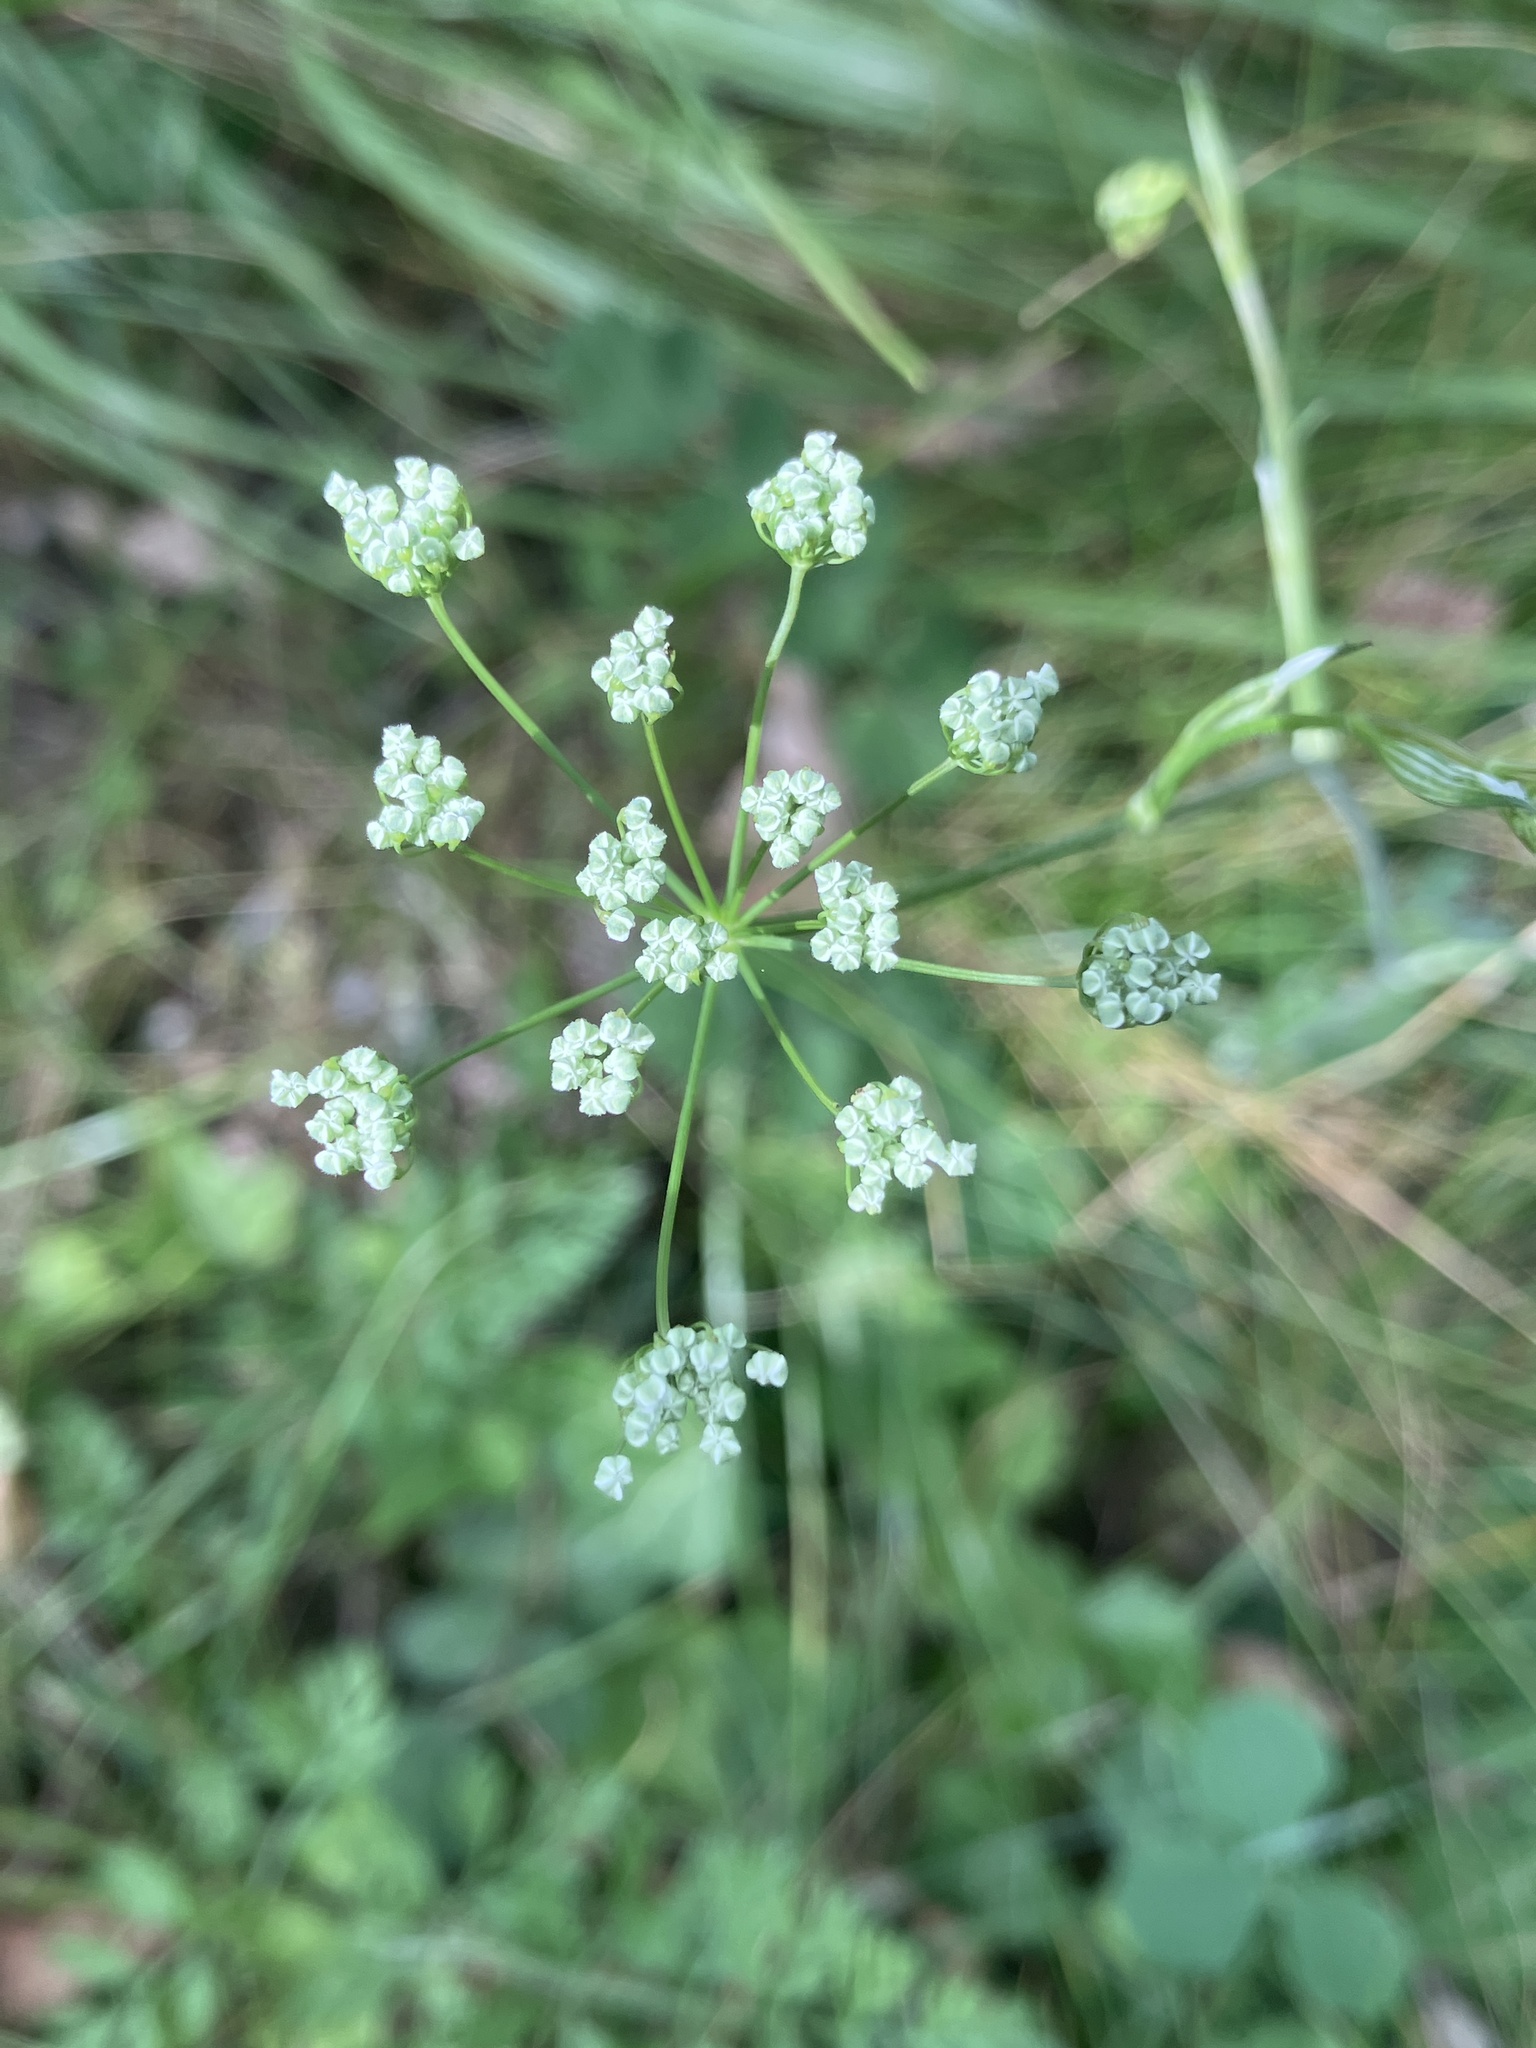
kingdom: Plantae
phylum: Tracheophyta
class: Magnoliopsida
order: Apiales
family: Apiaceae
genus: Pimpinella
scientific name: Pimpinella saxifraga
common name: Burnet-saxifrage
